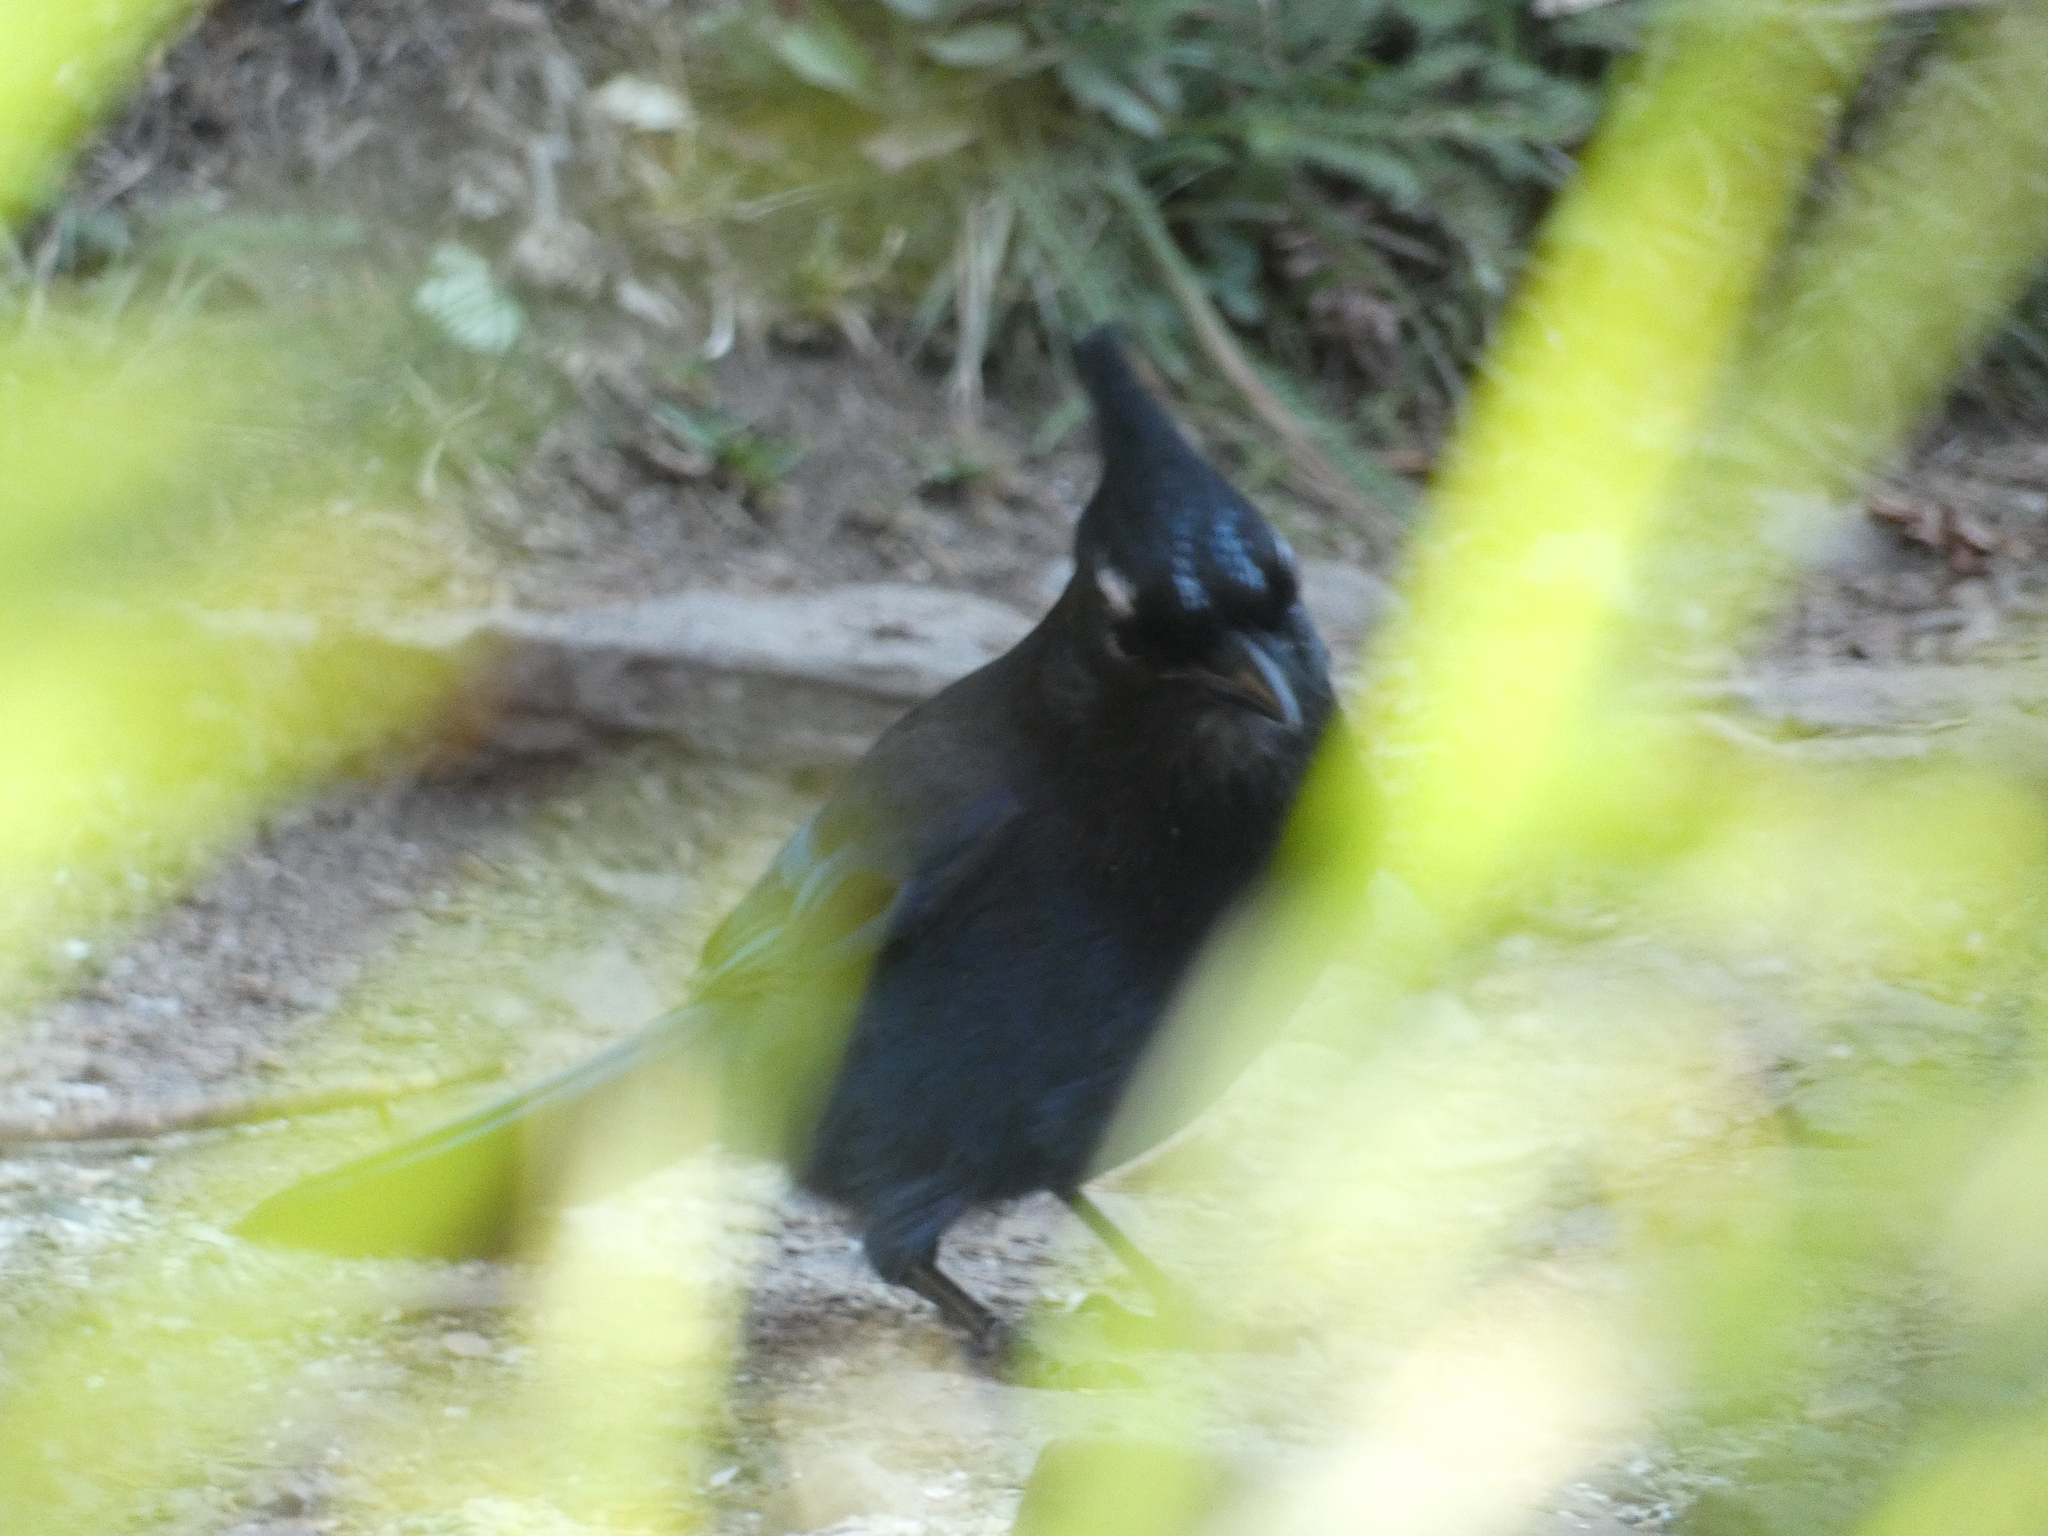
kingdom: Animalia
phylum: Chordata
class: Aves
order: Passeriformes
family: Corvidae
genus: Cyanocitta
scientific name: Cyanocitta stelleri
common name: Steller's jay
